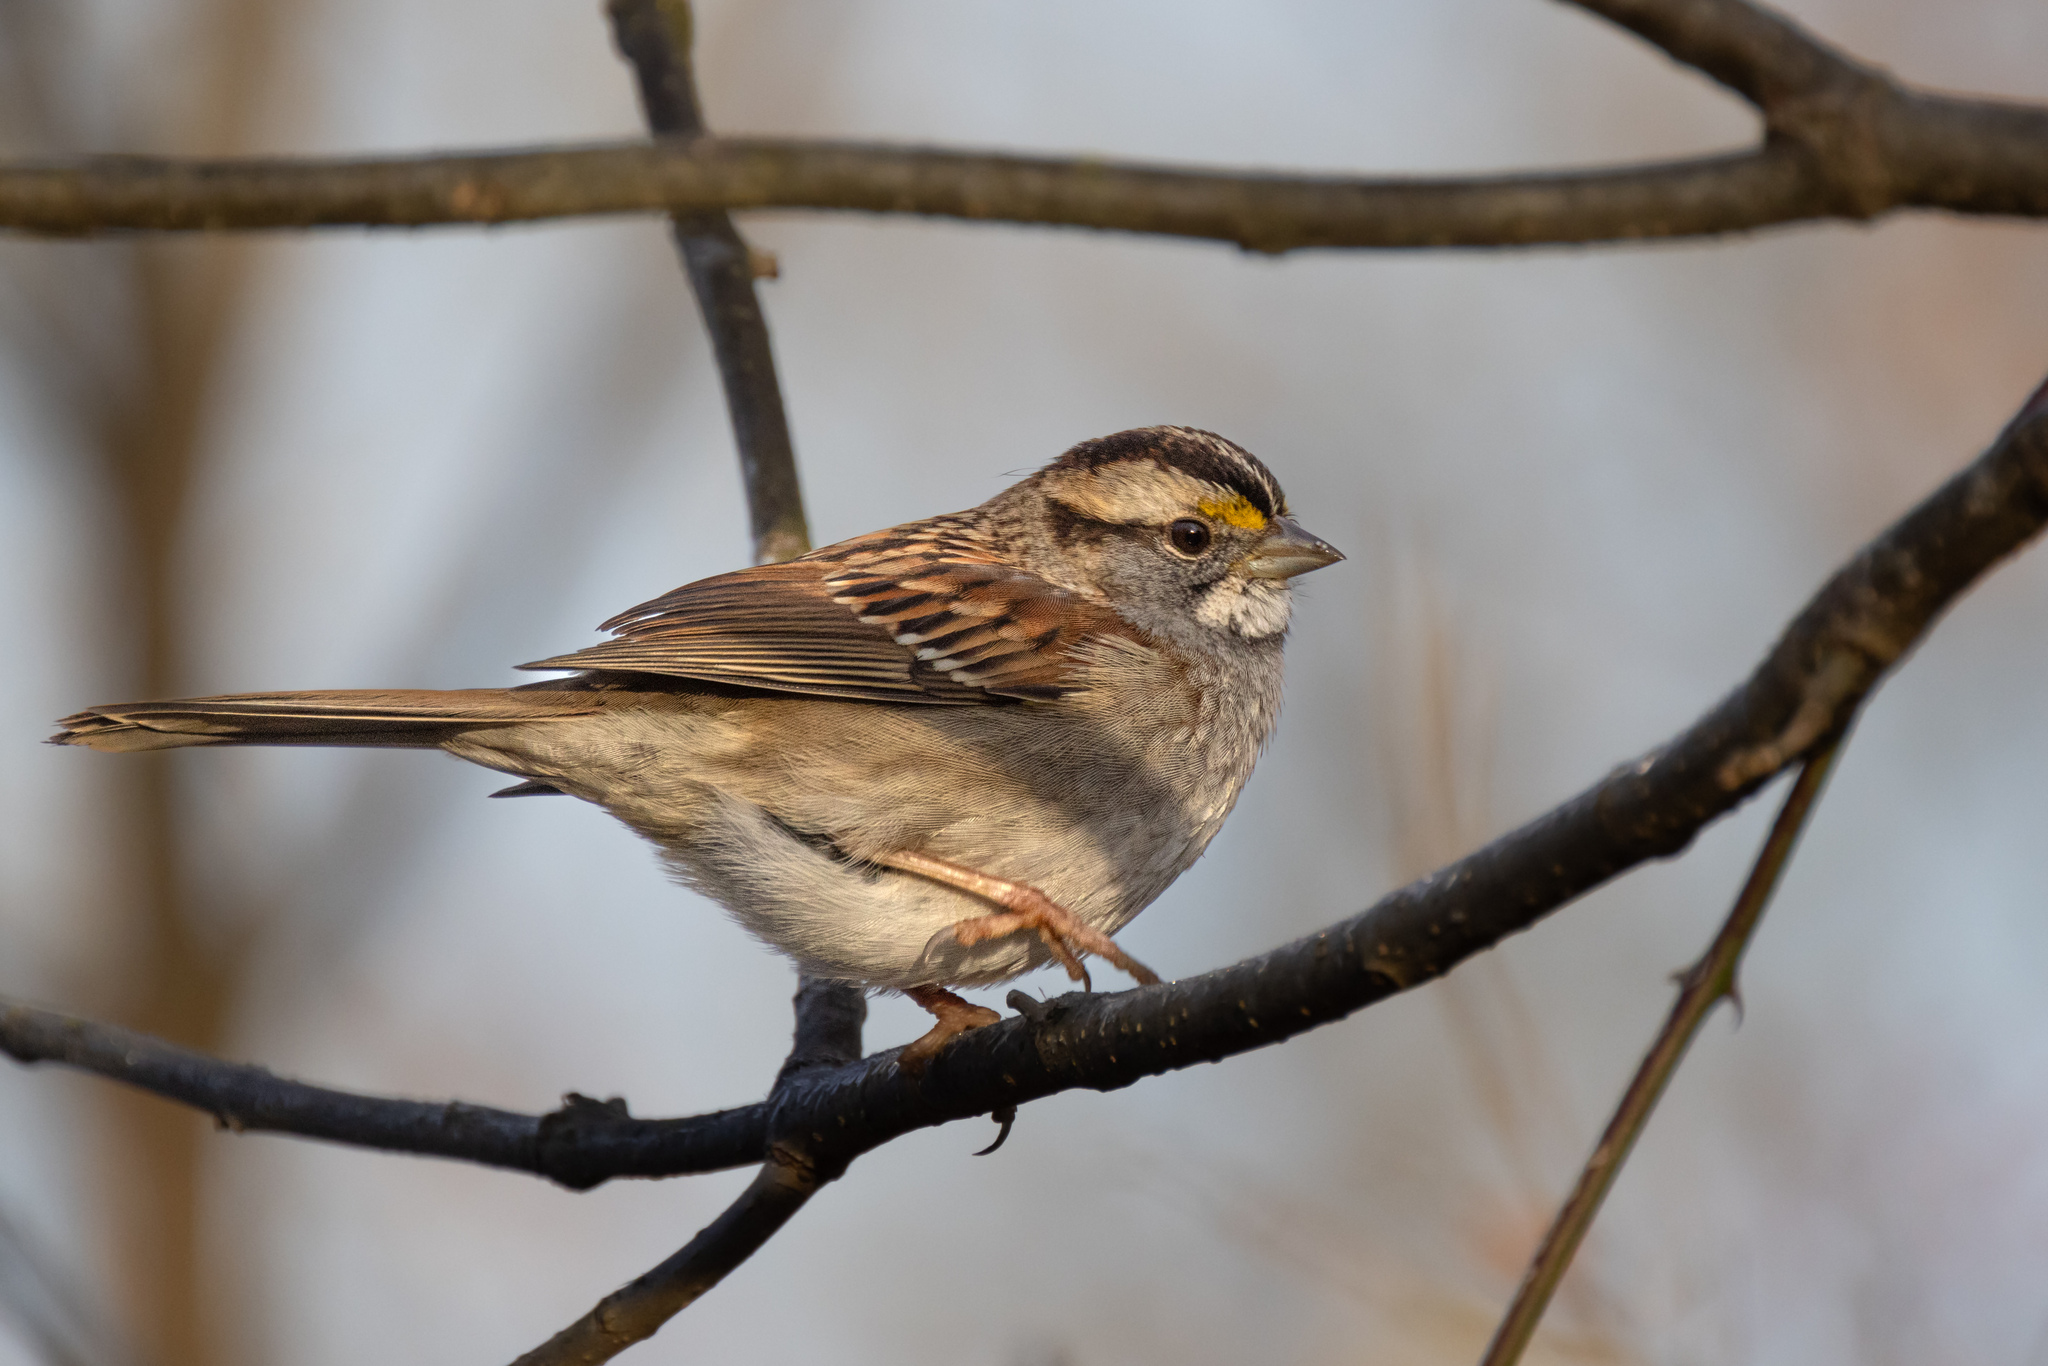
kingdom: Animalia
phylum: Chordata
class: Aves
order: Passeriformes
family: Passerellidae
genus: Zonotrichia
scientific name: Zonotrichia albicollis
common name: White-throated sparrow
